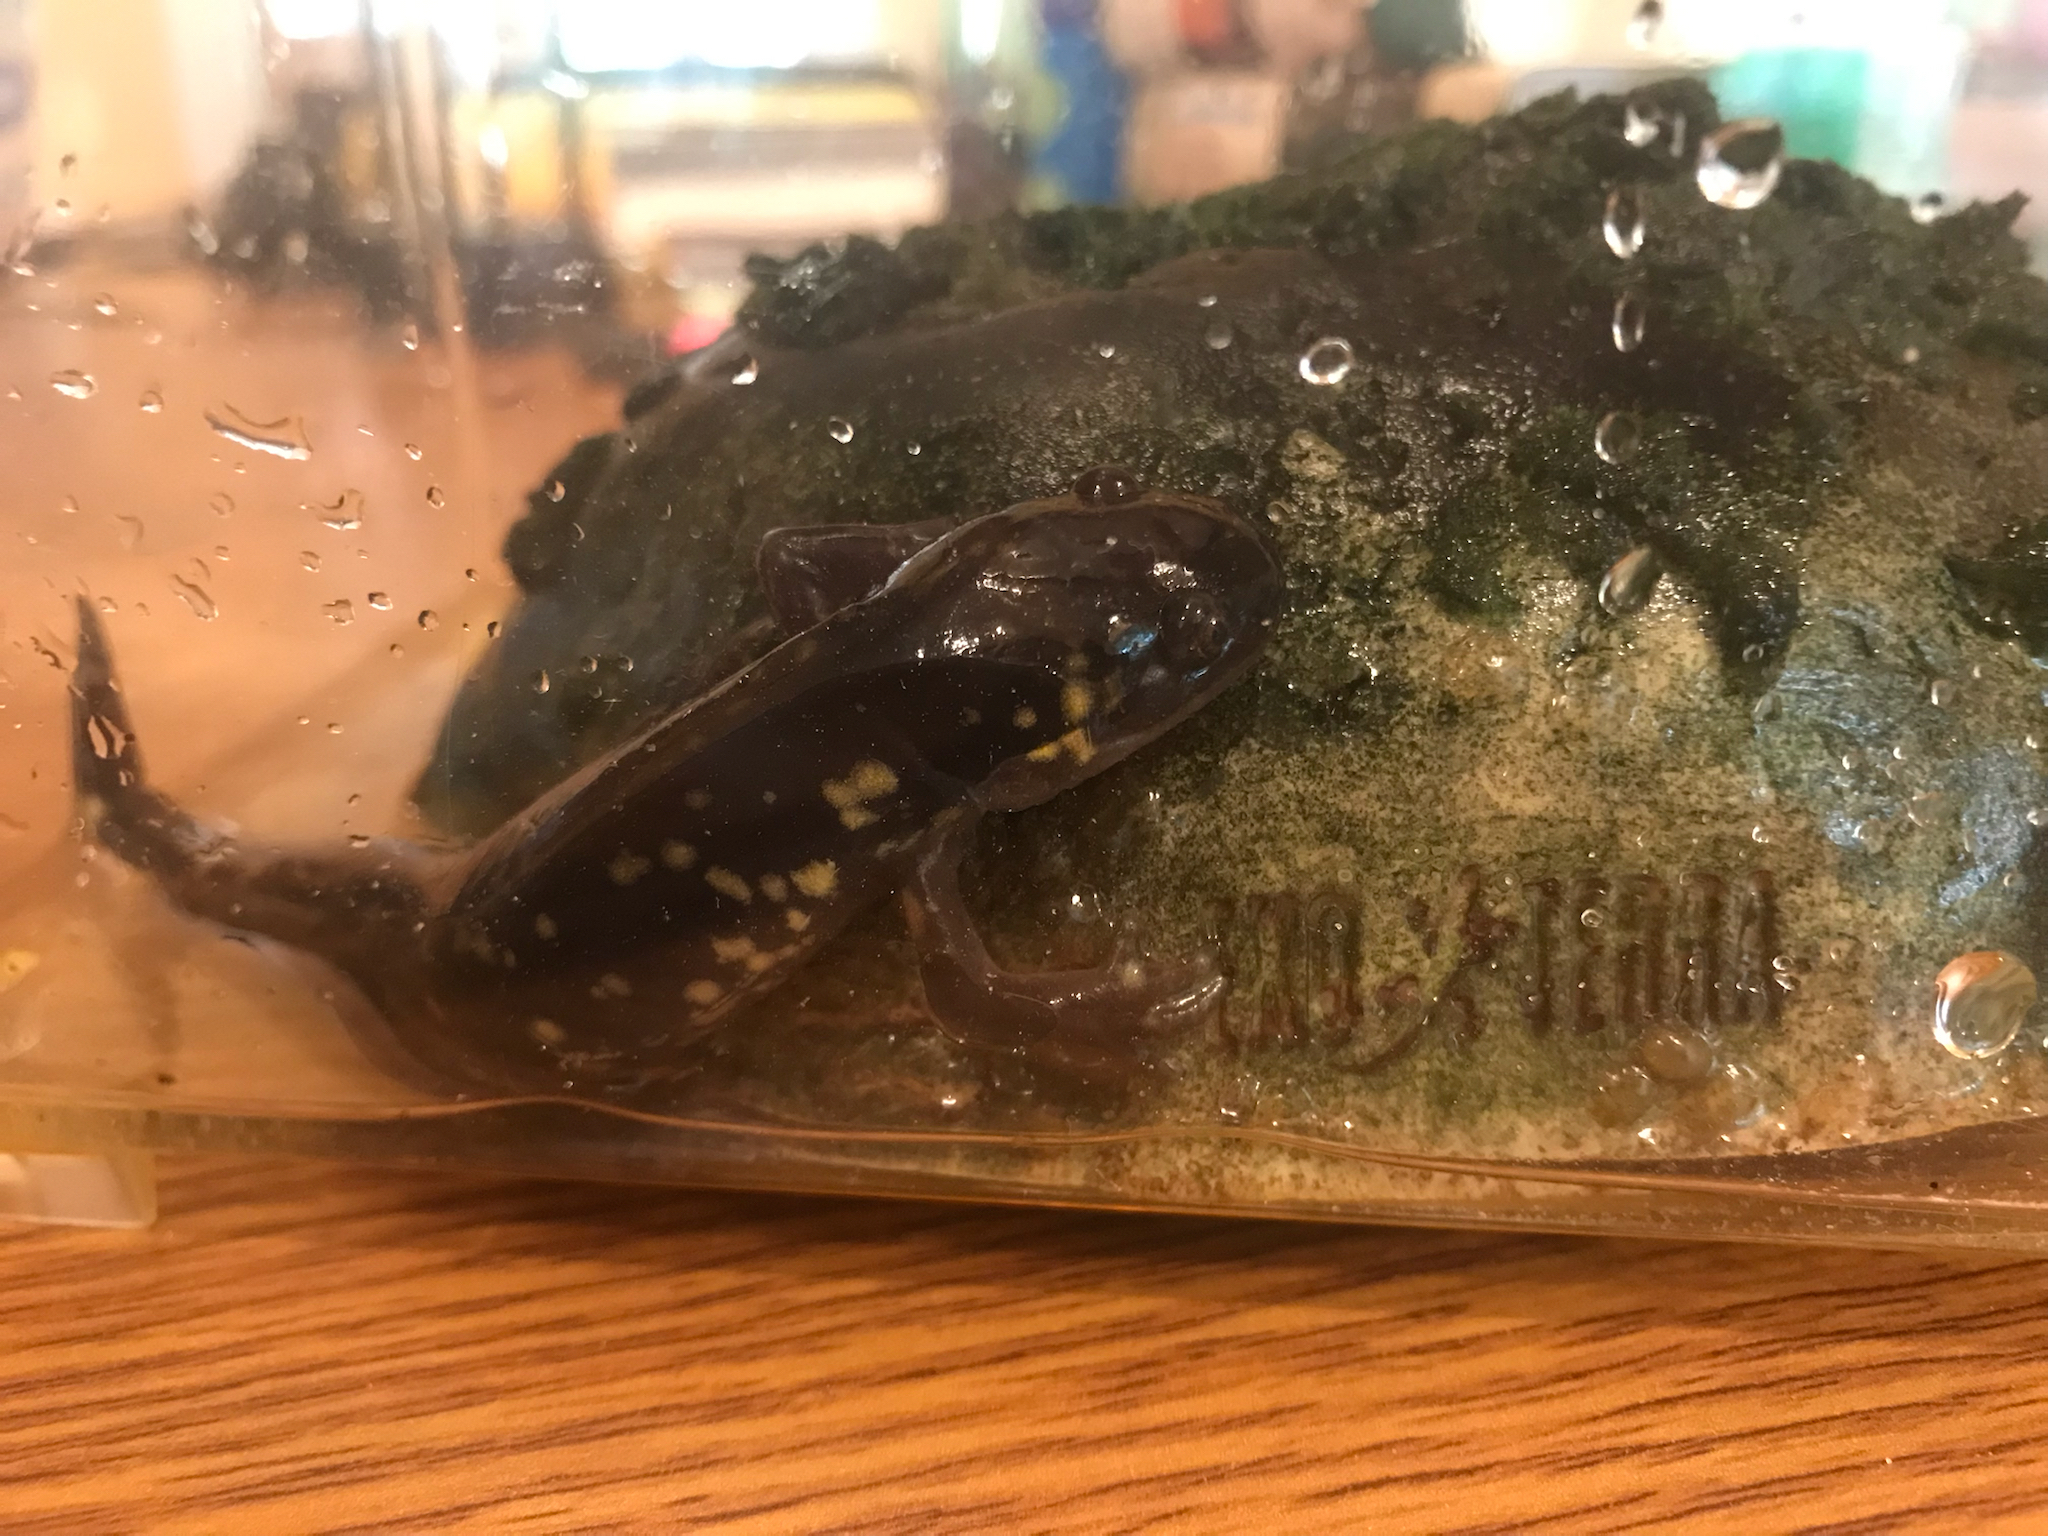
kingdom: Animalia
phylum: Chordata
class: Amphibia
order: Caudata
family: Ambystomatidae
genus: Ambystoma
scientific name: Ambystoma tigrinum
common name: Tiger salamander
